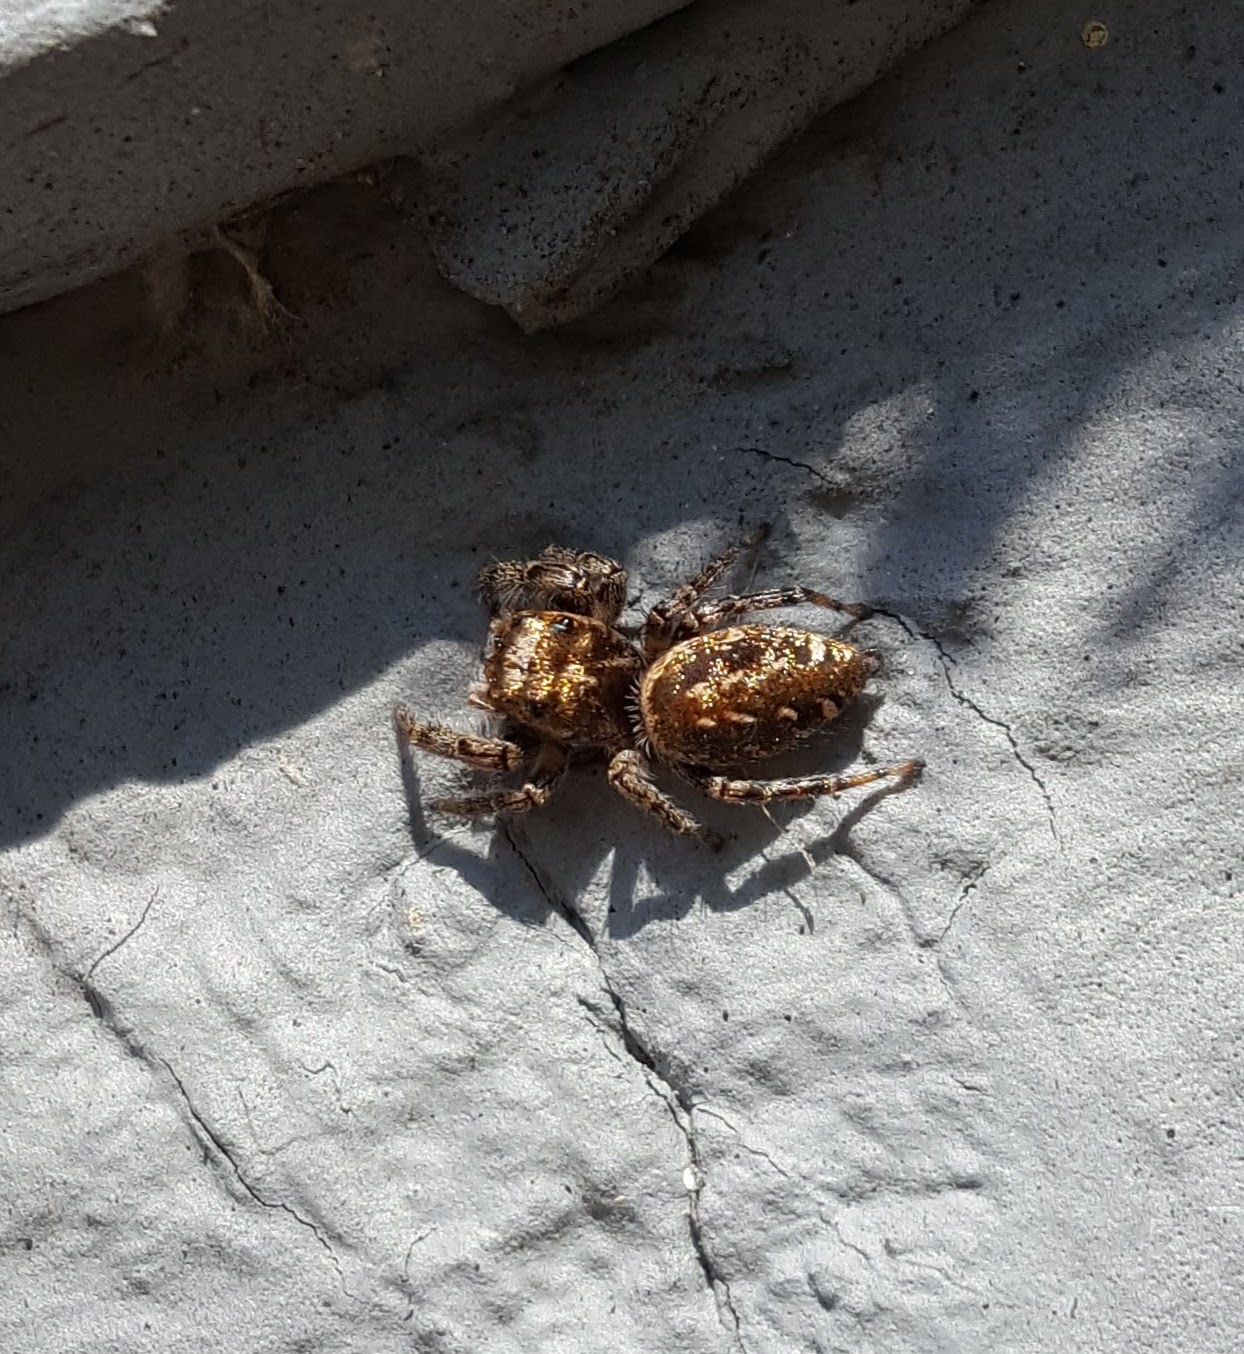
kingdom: Animalia
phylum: Arthropoda
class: Arachnida
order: Araneae
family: Salticidae
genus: Eris
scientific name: Eris militaris
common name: Bronze jumper
